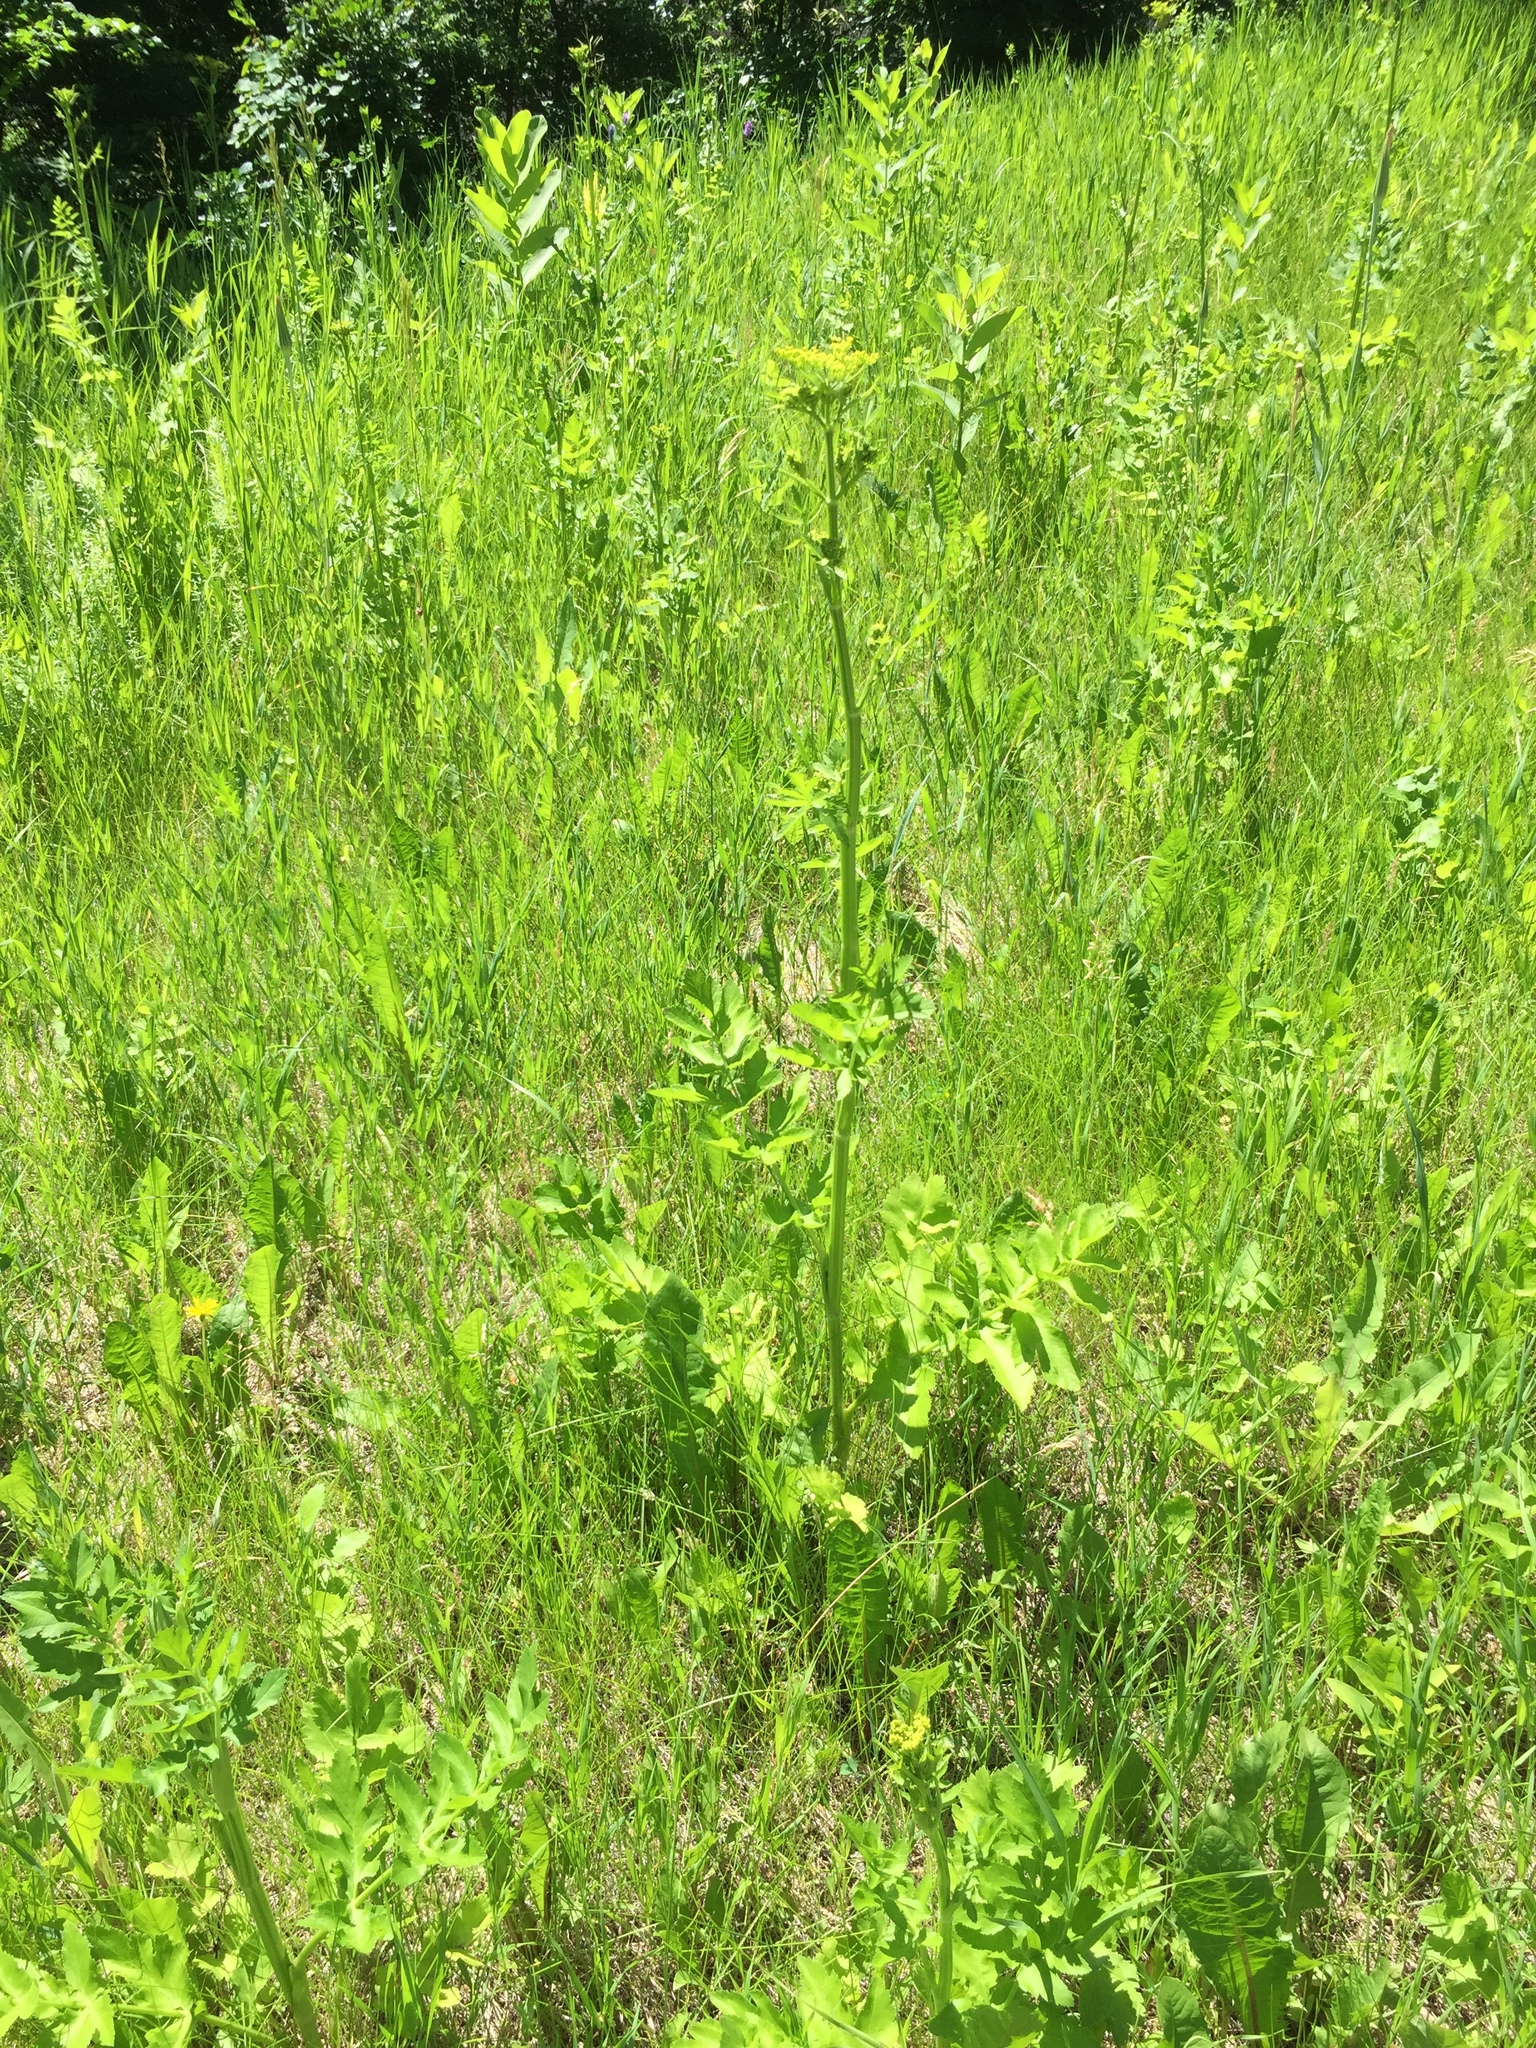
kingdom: Plantae
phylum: Tracheophyta
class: Magnoliopsida
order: Apiales
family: Apiaceae
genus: Pastinaca
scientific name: Pastinaca sativa
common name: Wild parsnip
